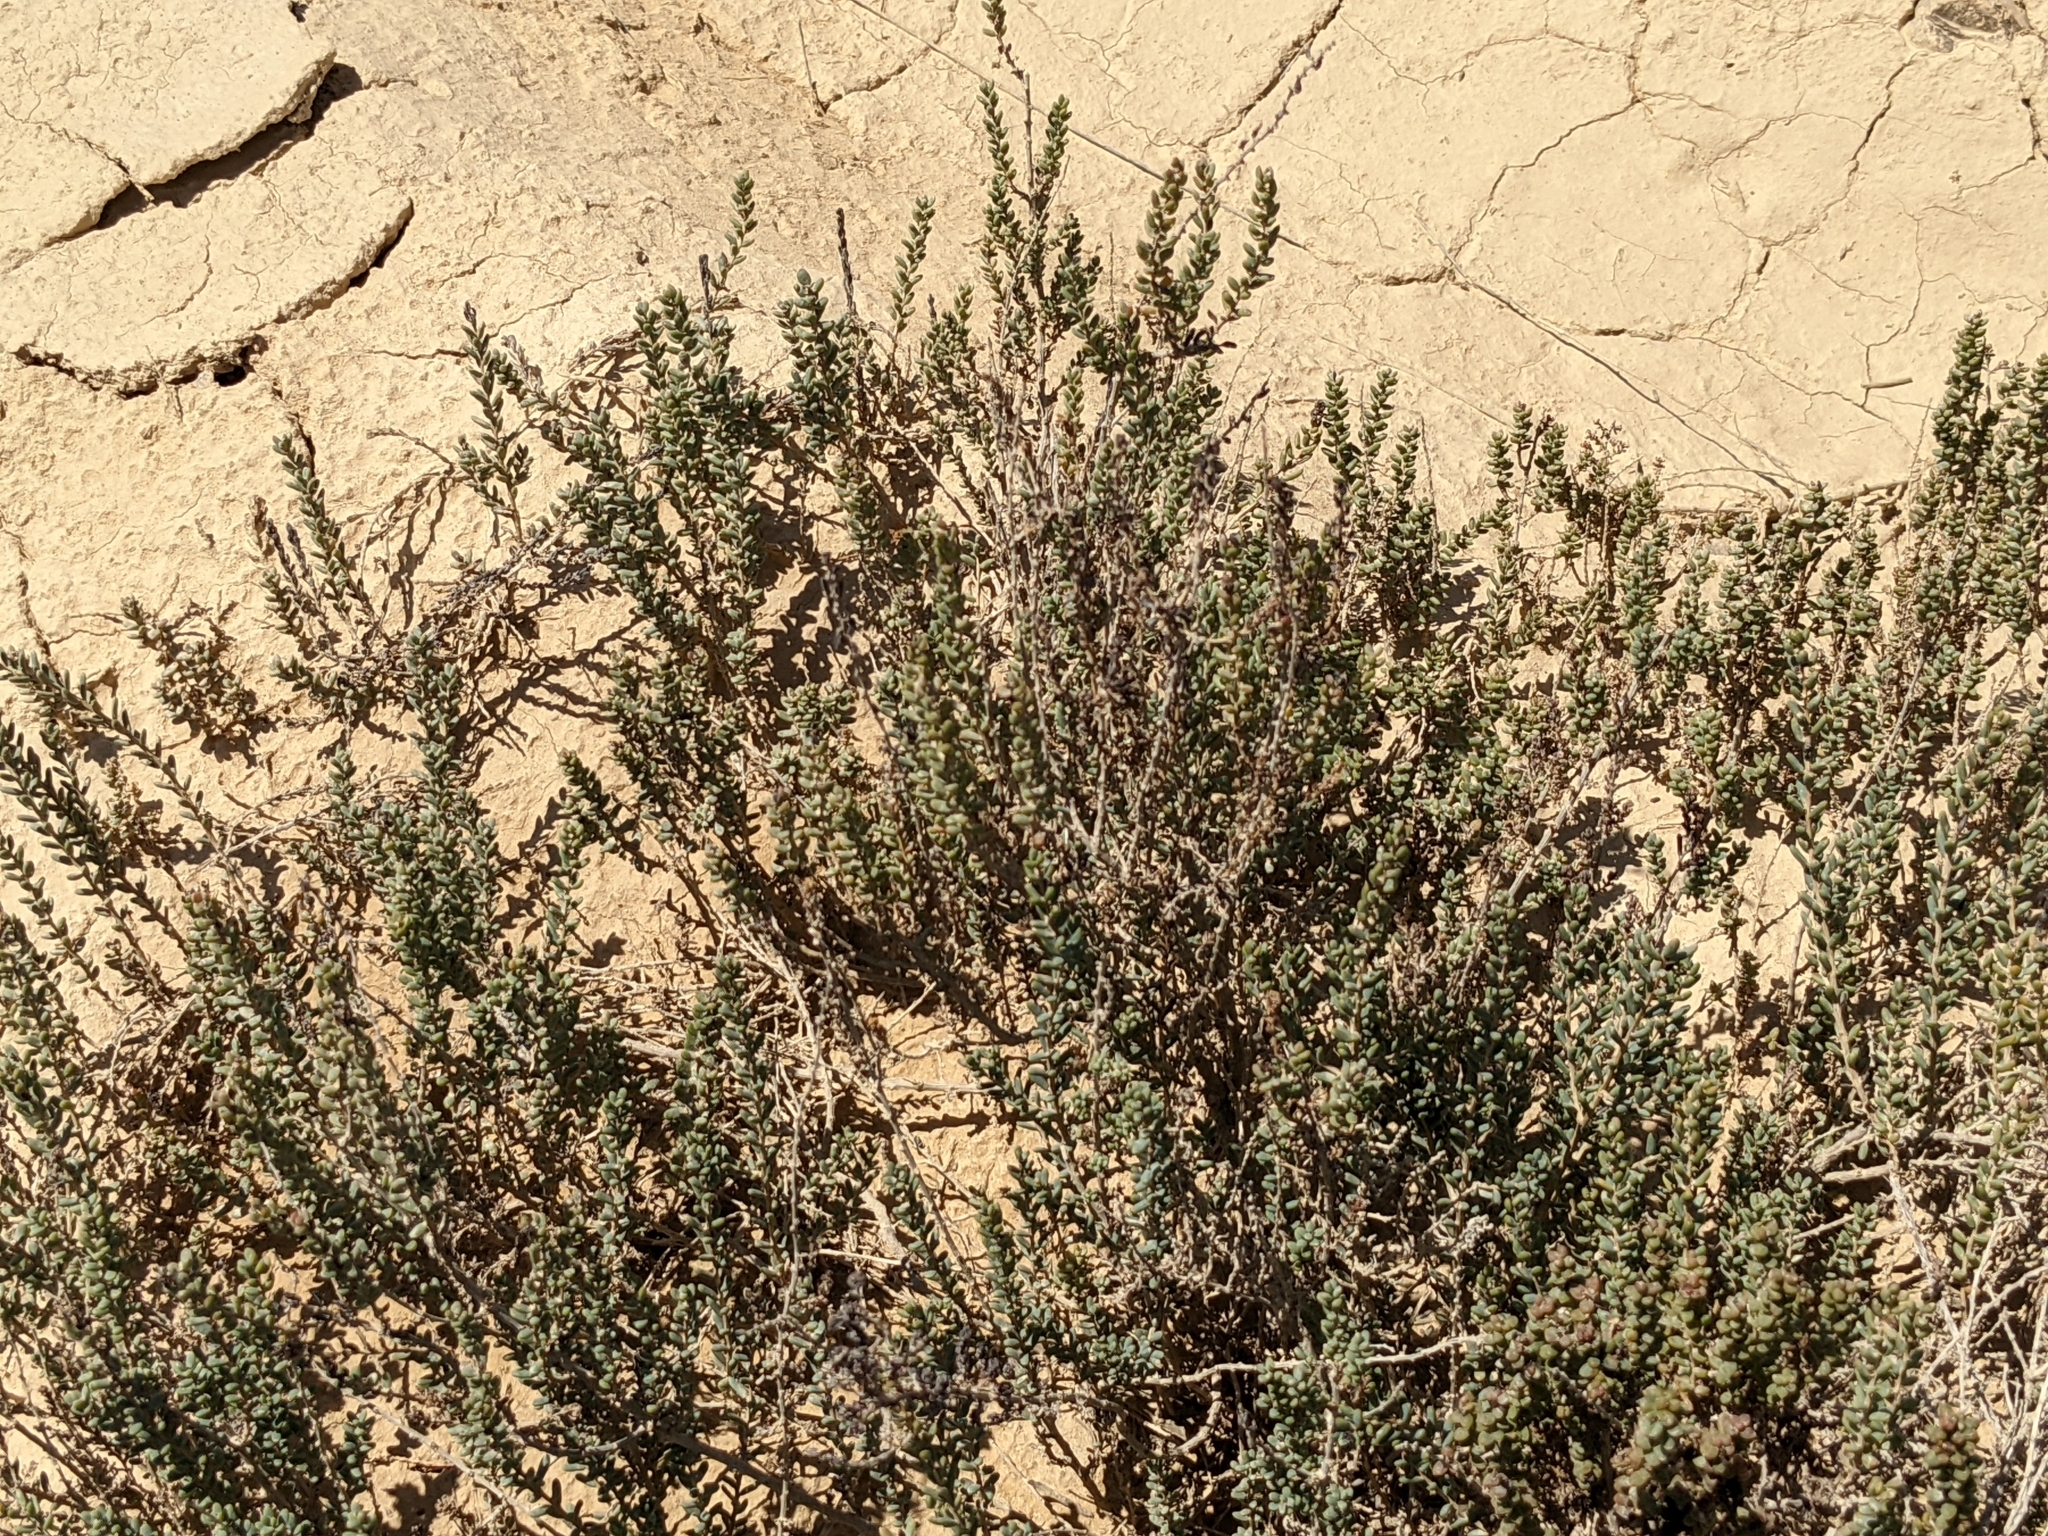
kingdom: Plantae
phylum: Tracheophyta
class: Magnoliopsida
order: Caryophyllales
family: Amaranthaceae
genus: Suaeda
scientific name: Suaeda vera
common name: Shrubby sea-blite
